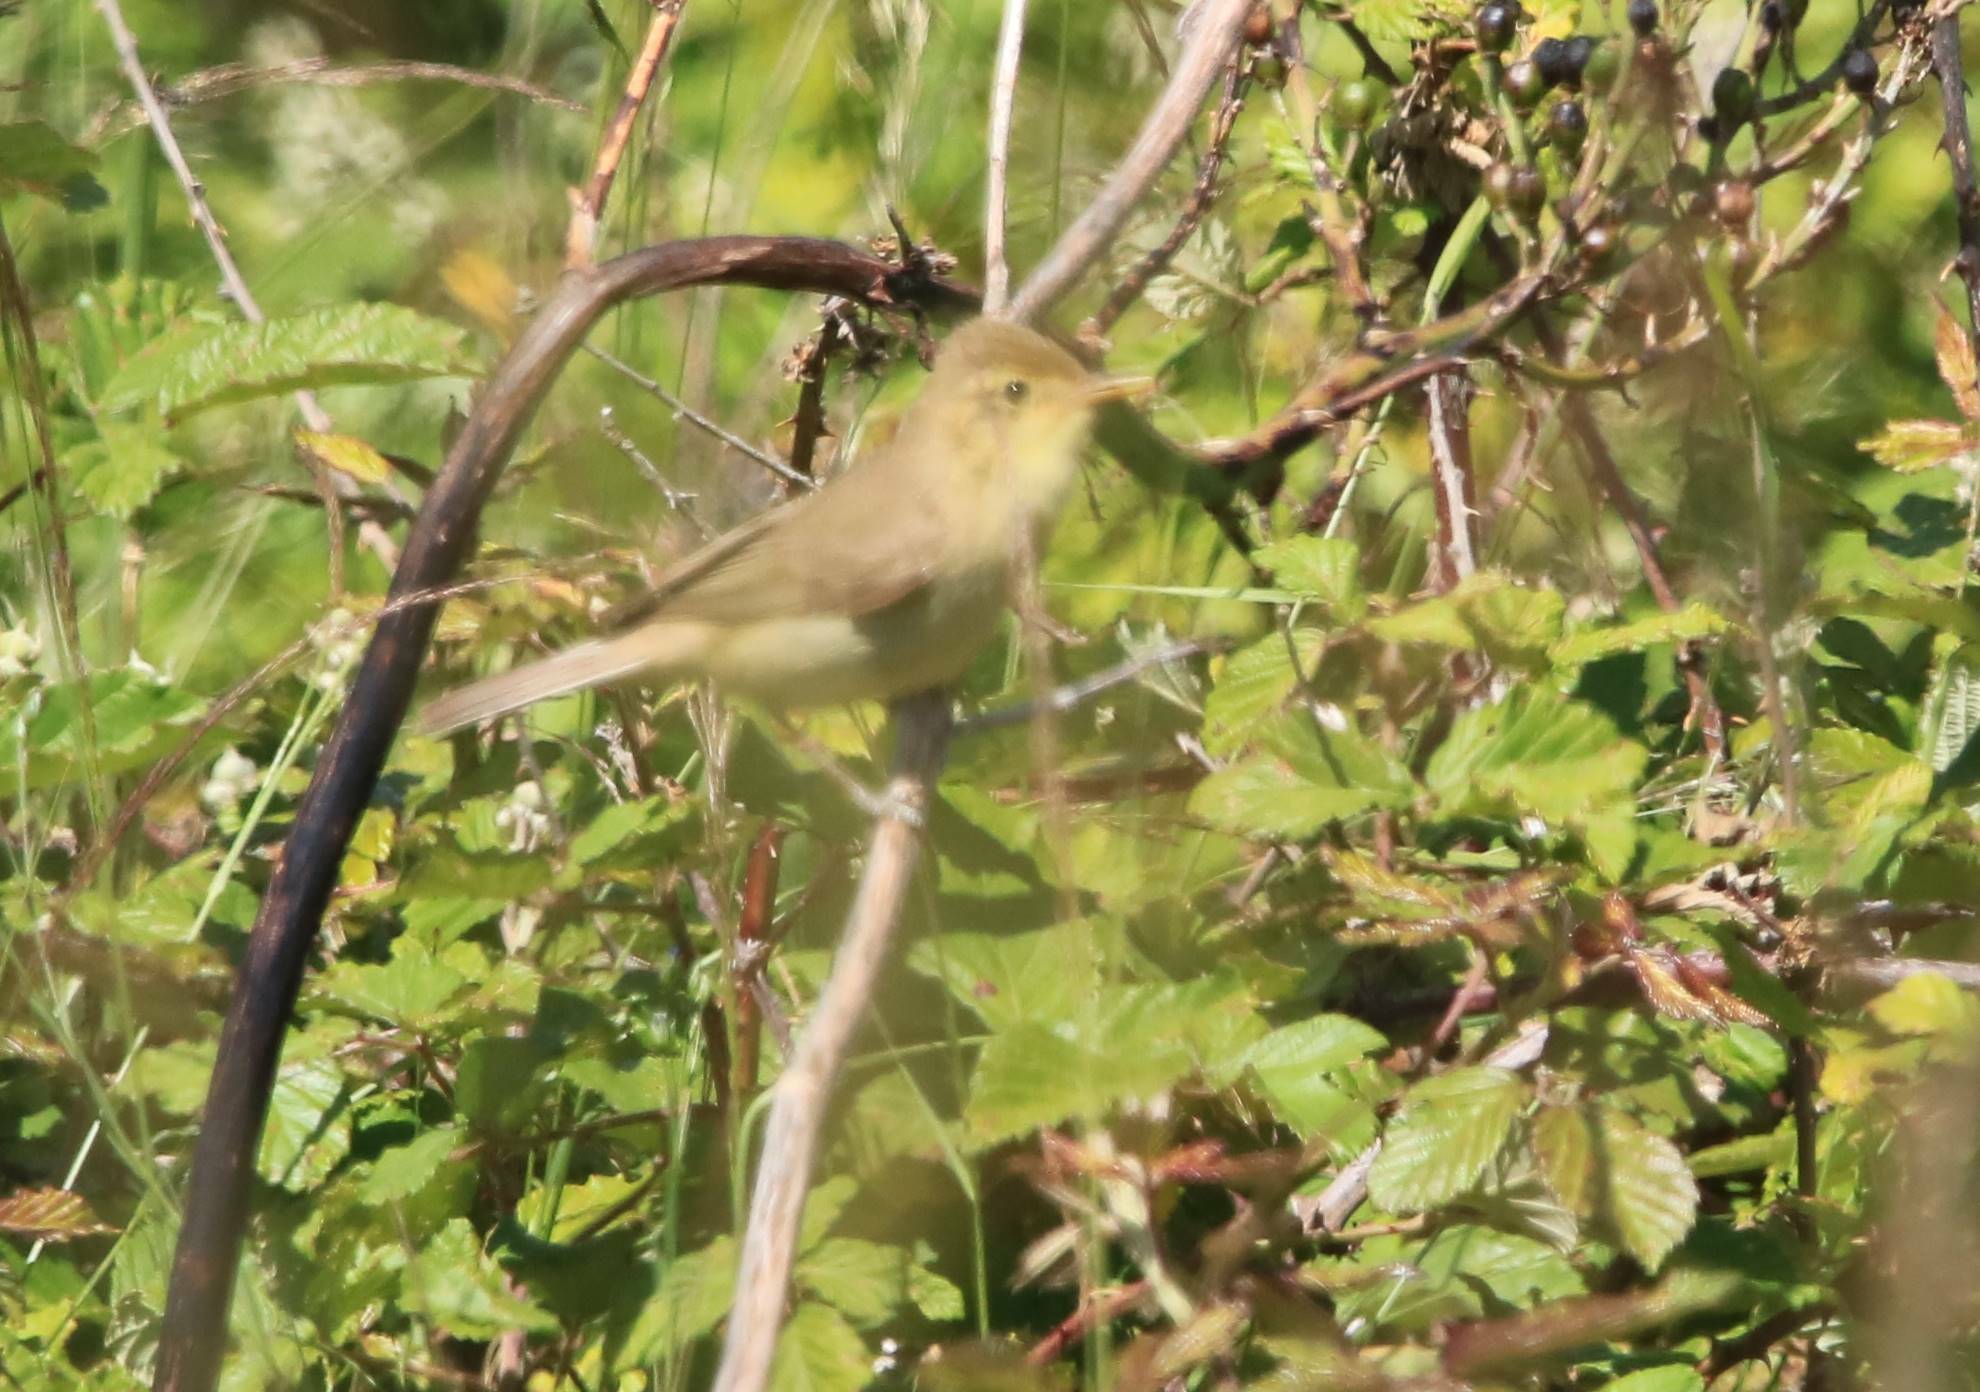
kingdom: Animalia
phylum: Chordata
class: Aves
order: Passeriformes
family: Acrocephalidae
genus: Hippolais
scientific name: Hippolais polyglotta
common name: Melodious warbler
